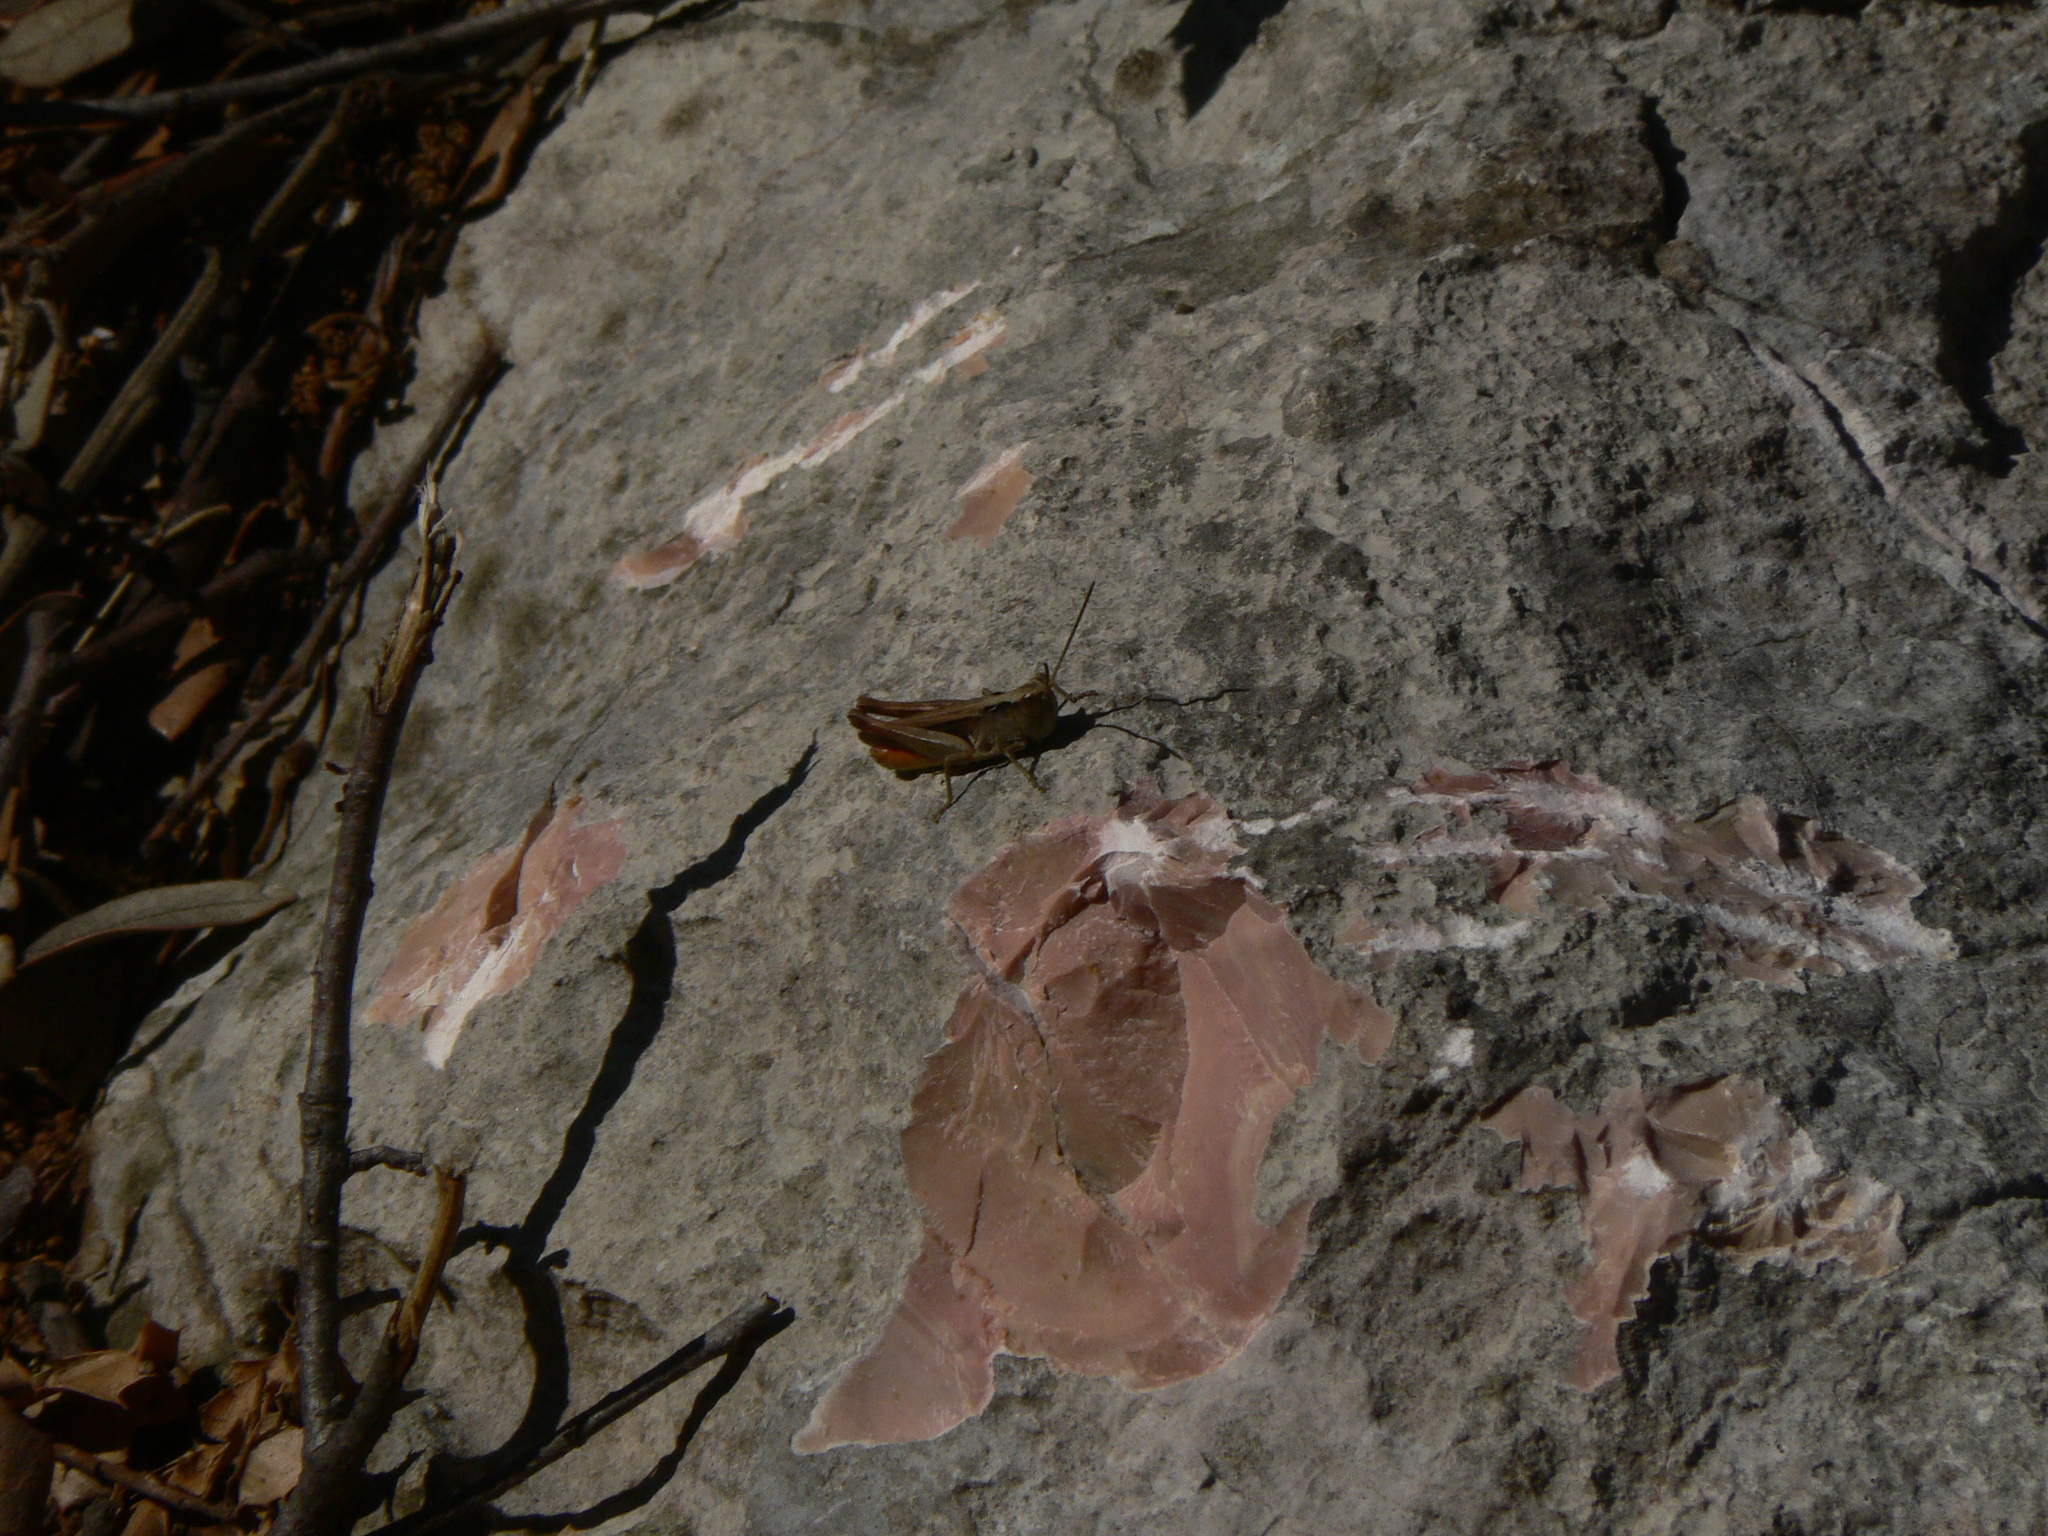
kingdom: Animalia
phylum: Arthropoda
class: Insecta
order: Orthoptera
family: Acrididae
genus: Chorthippus
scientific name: Chorthippus vagans
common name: Heath grasshopper
